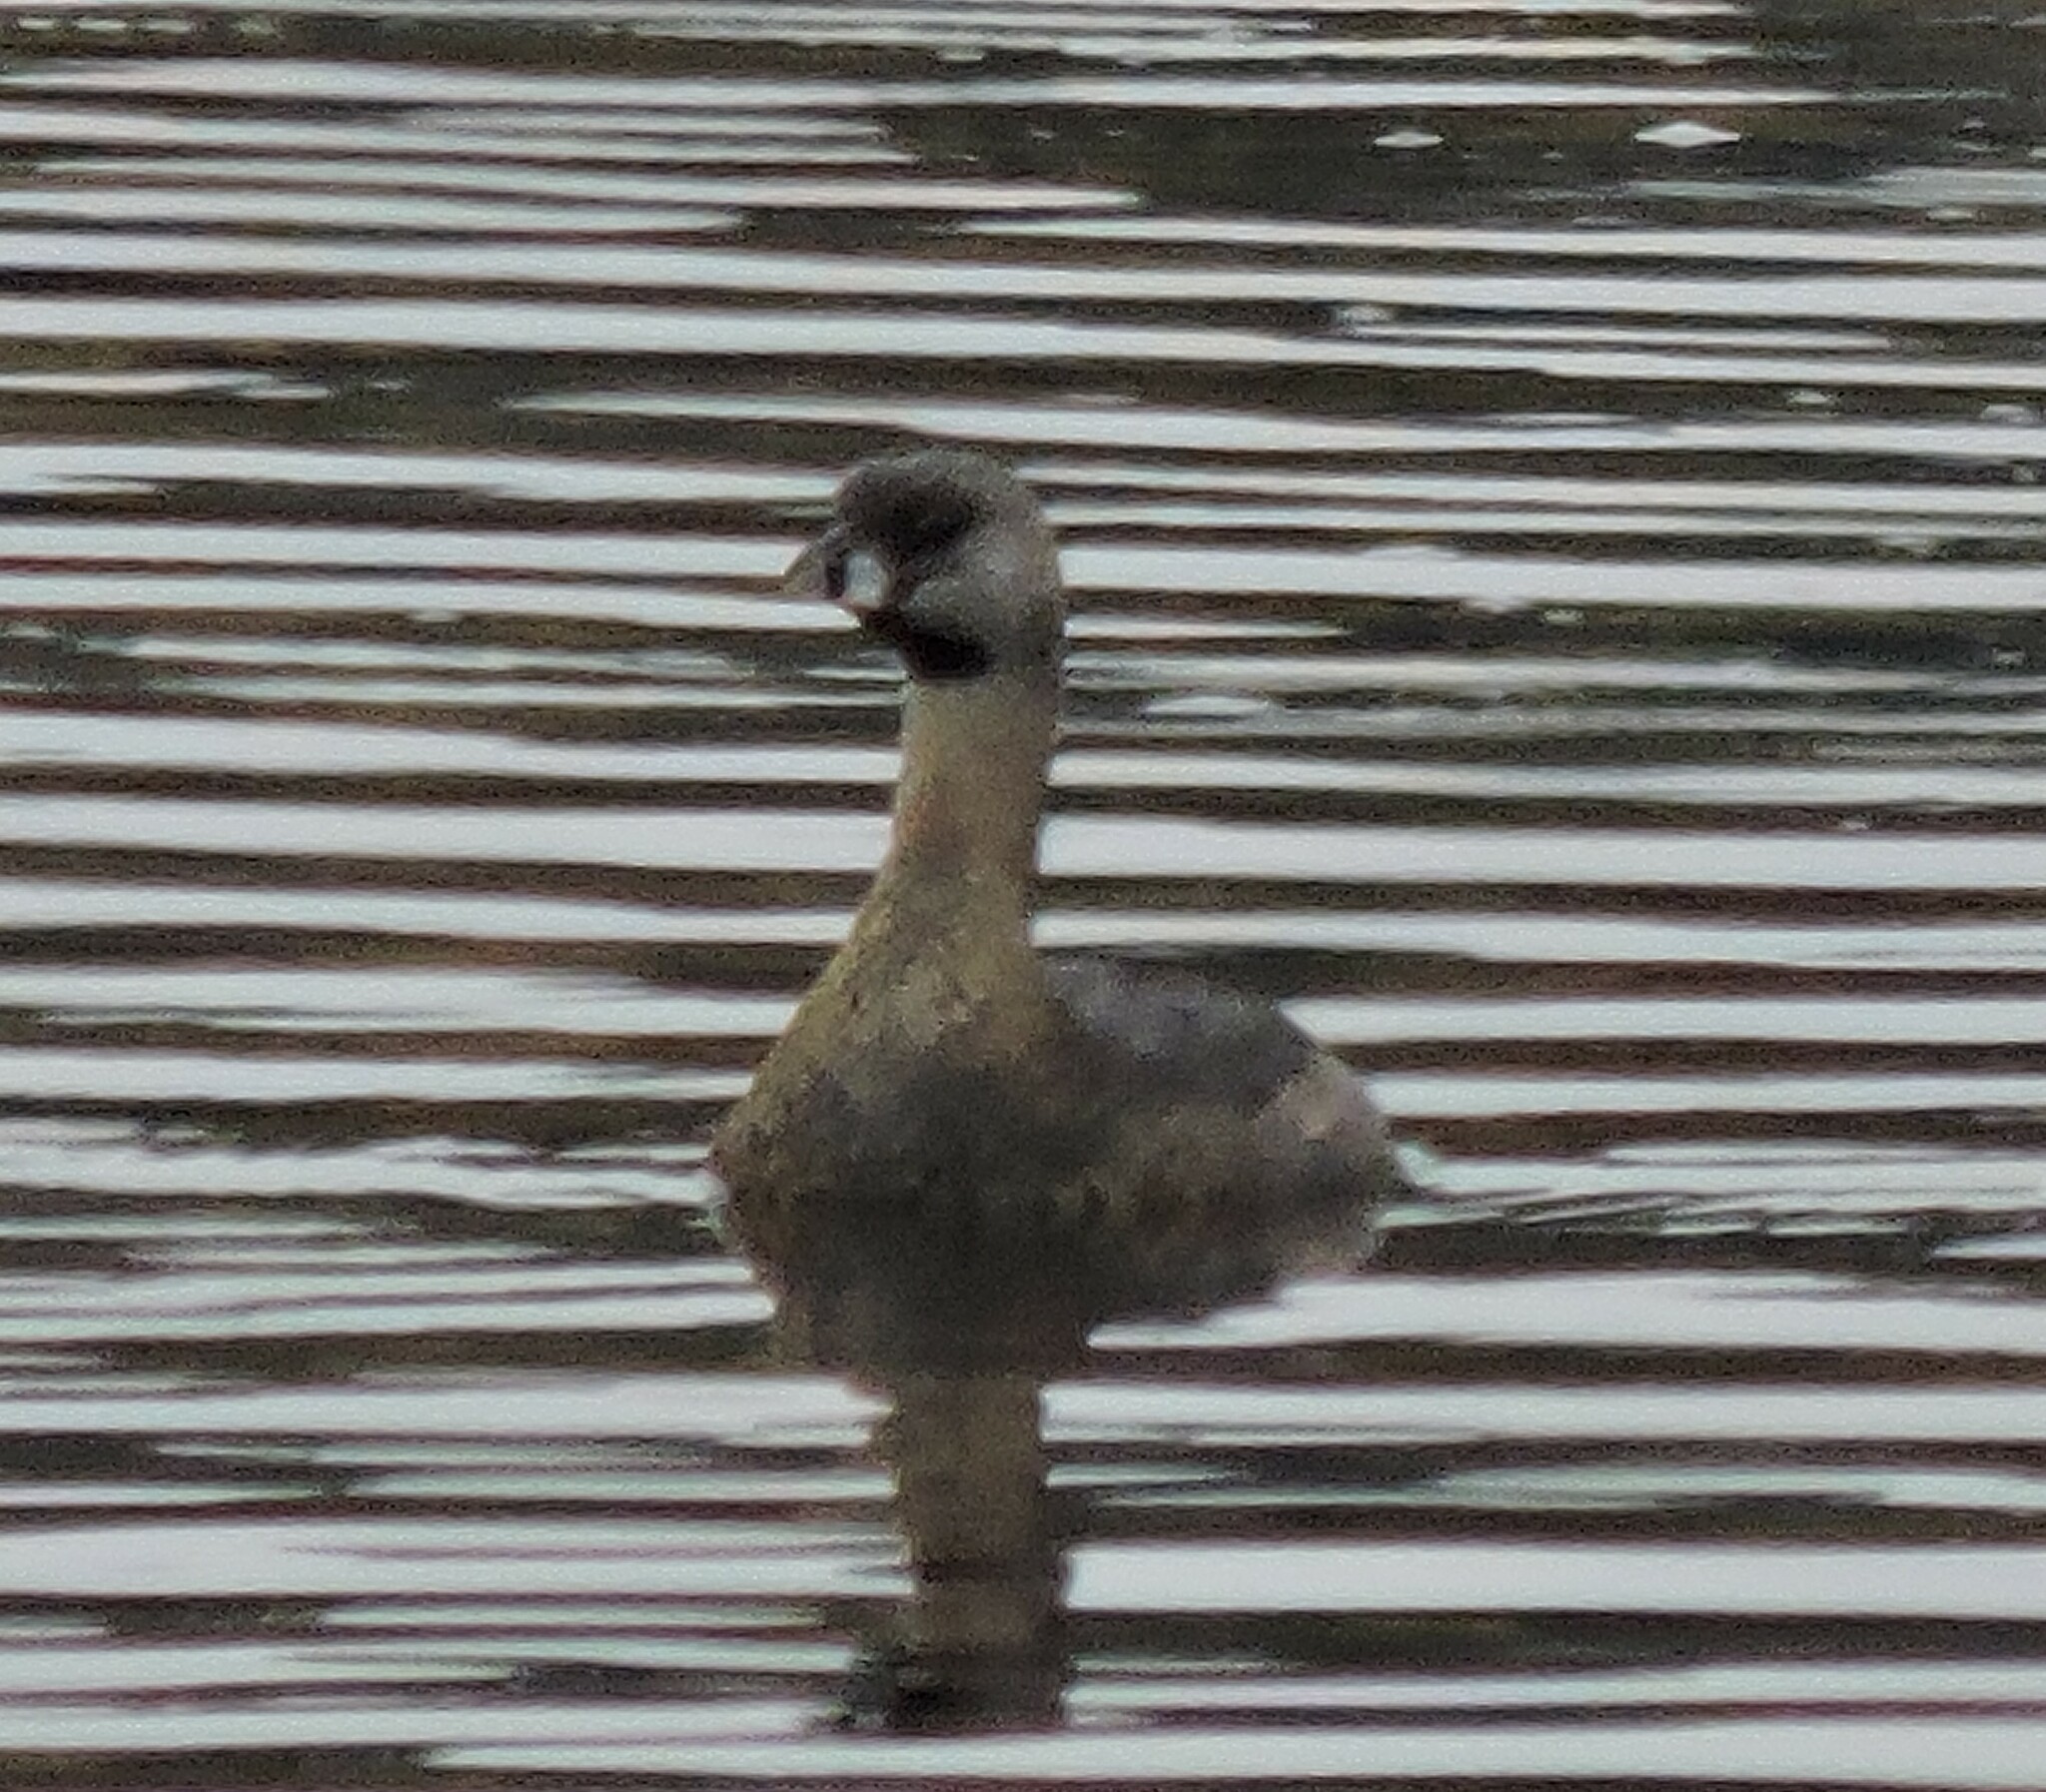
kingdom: Animalia
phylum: Chordata
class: Aves
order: Podicipediformes
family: Podicipedidae
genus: Podilymbus
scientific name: Podilymbus podiceps
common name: Pied-billed grebe
